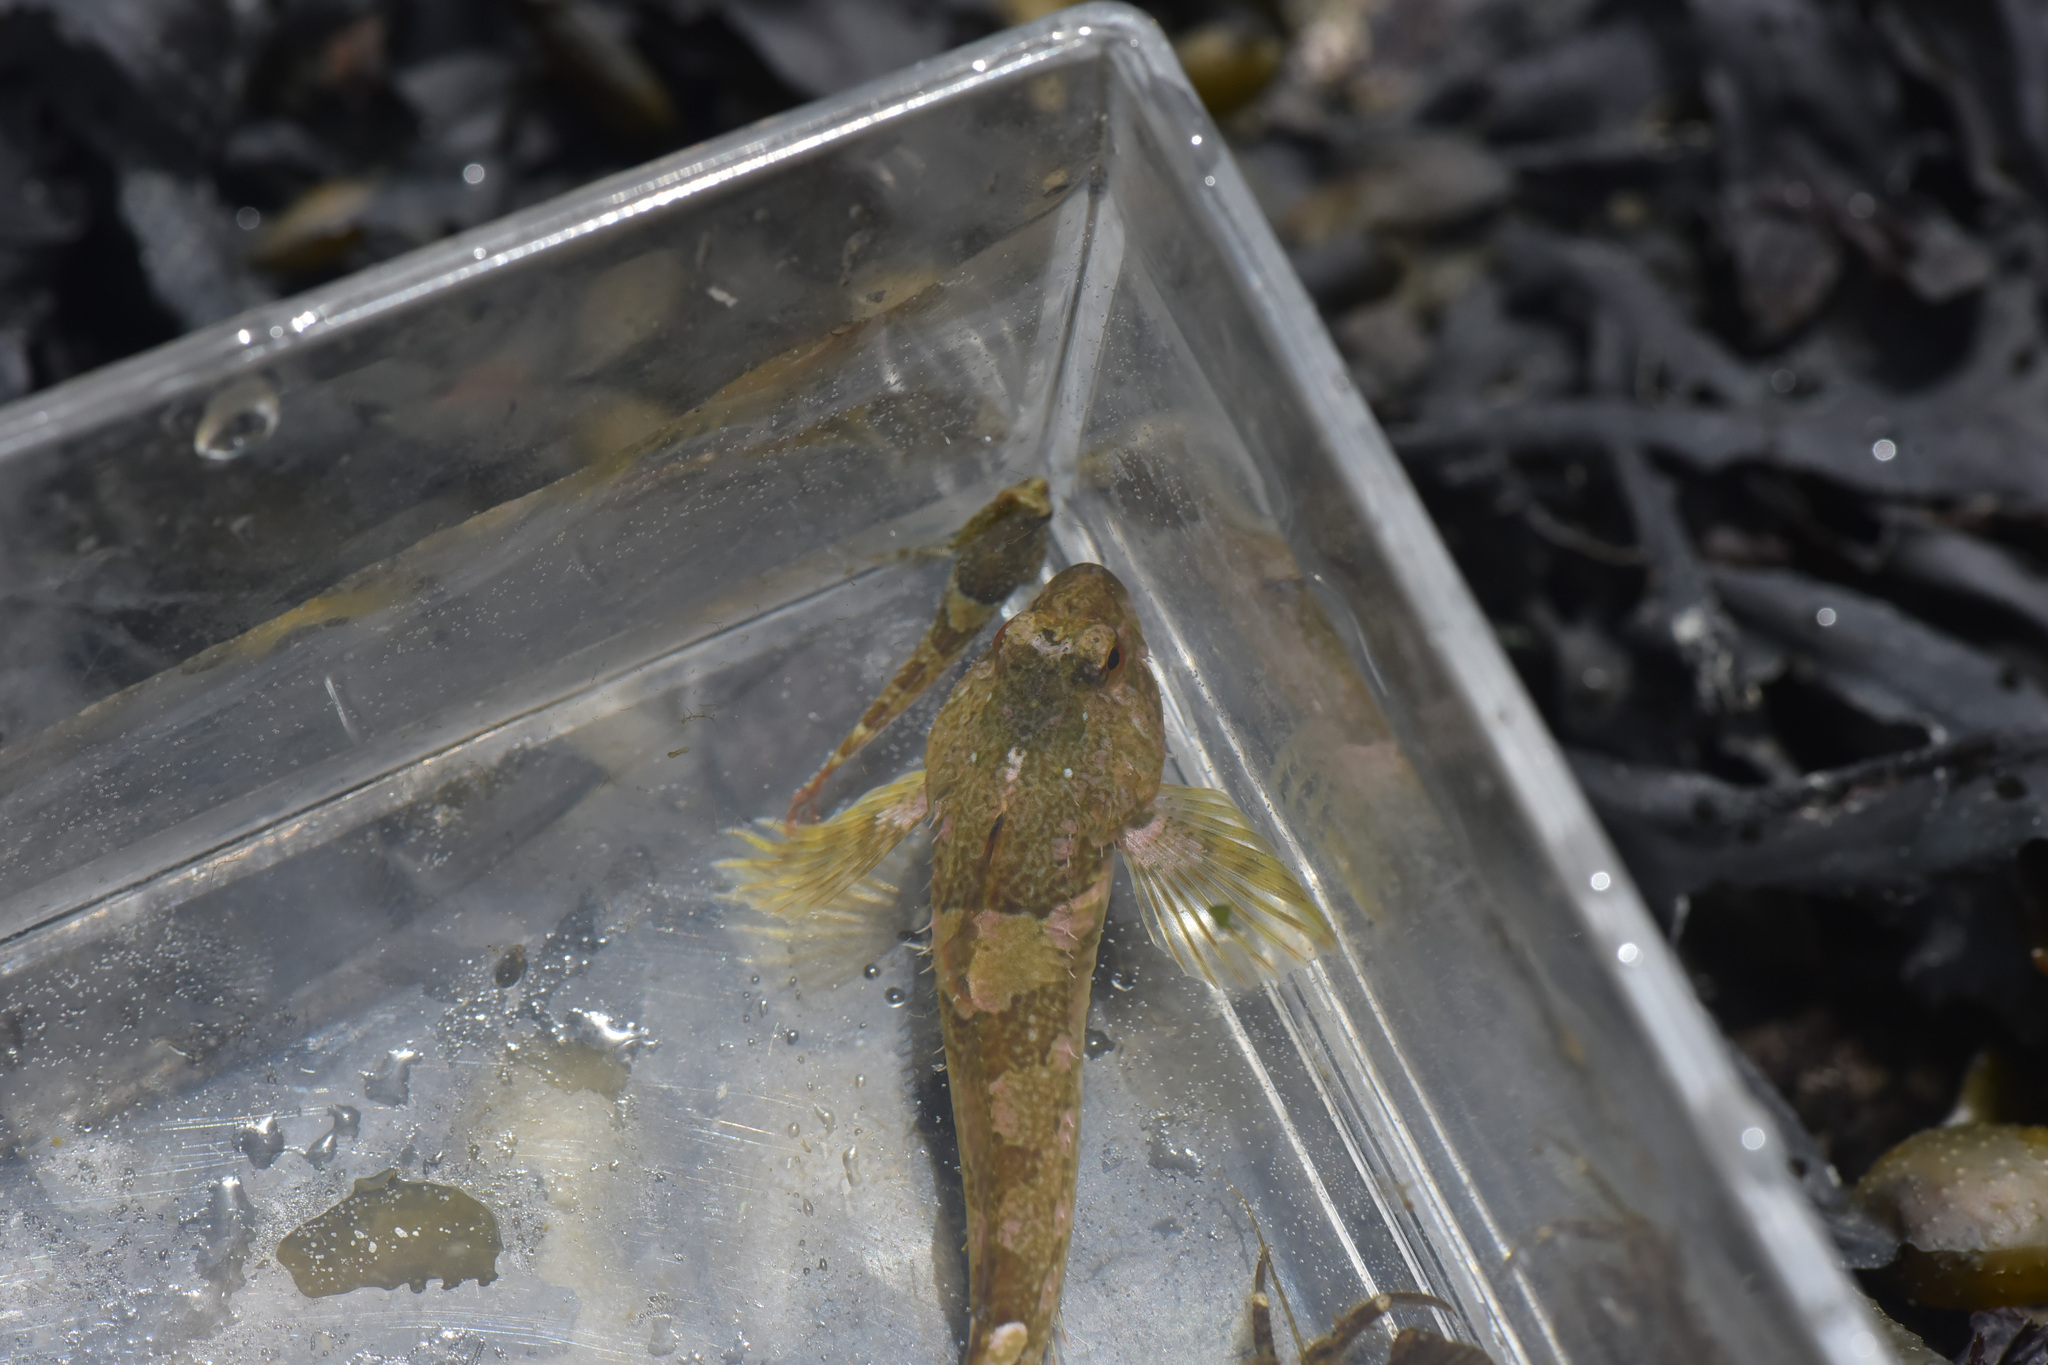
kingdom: Animalia
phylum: Chordata
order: Scorpaeniformes
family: Cottidae
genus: Oligocottus
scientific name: Oligocottus maculosus
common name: Tidepool sculpin
